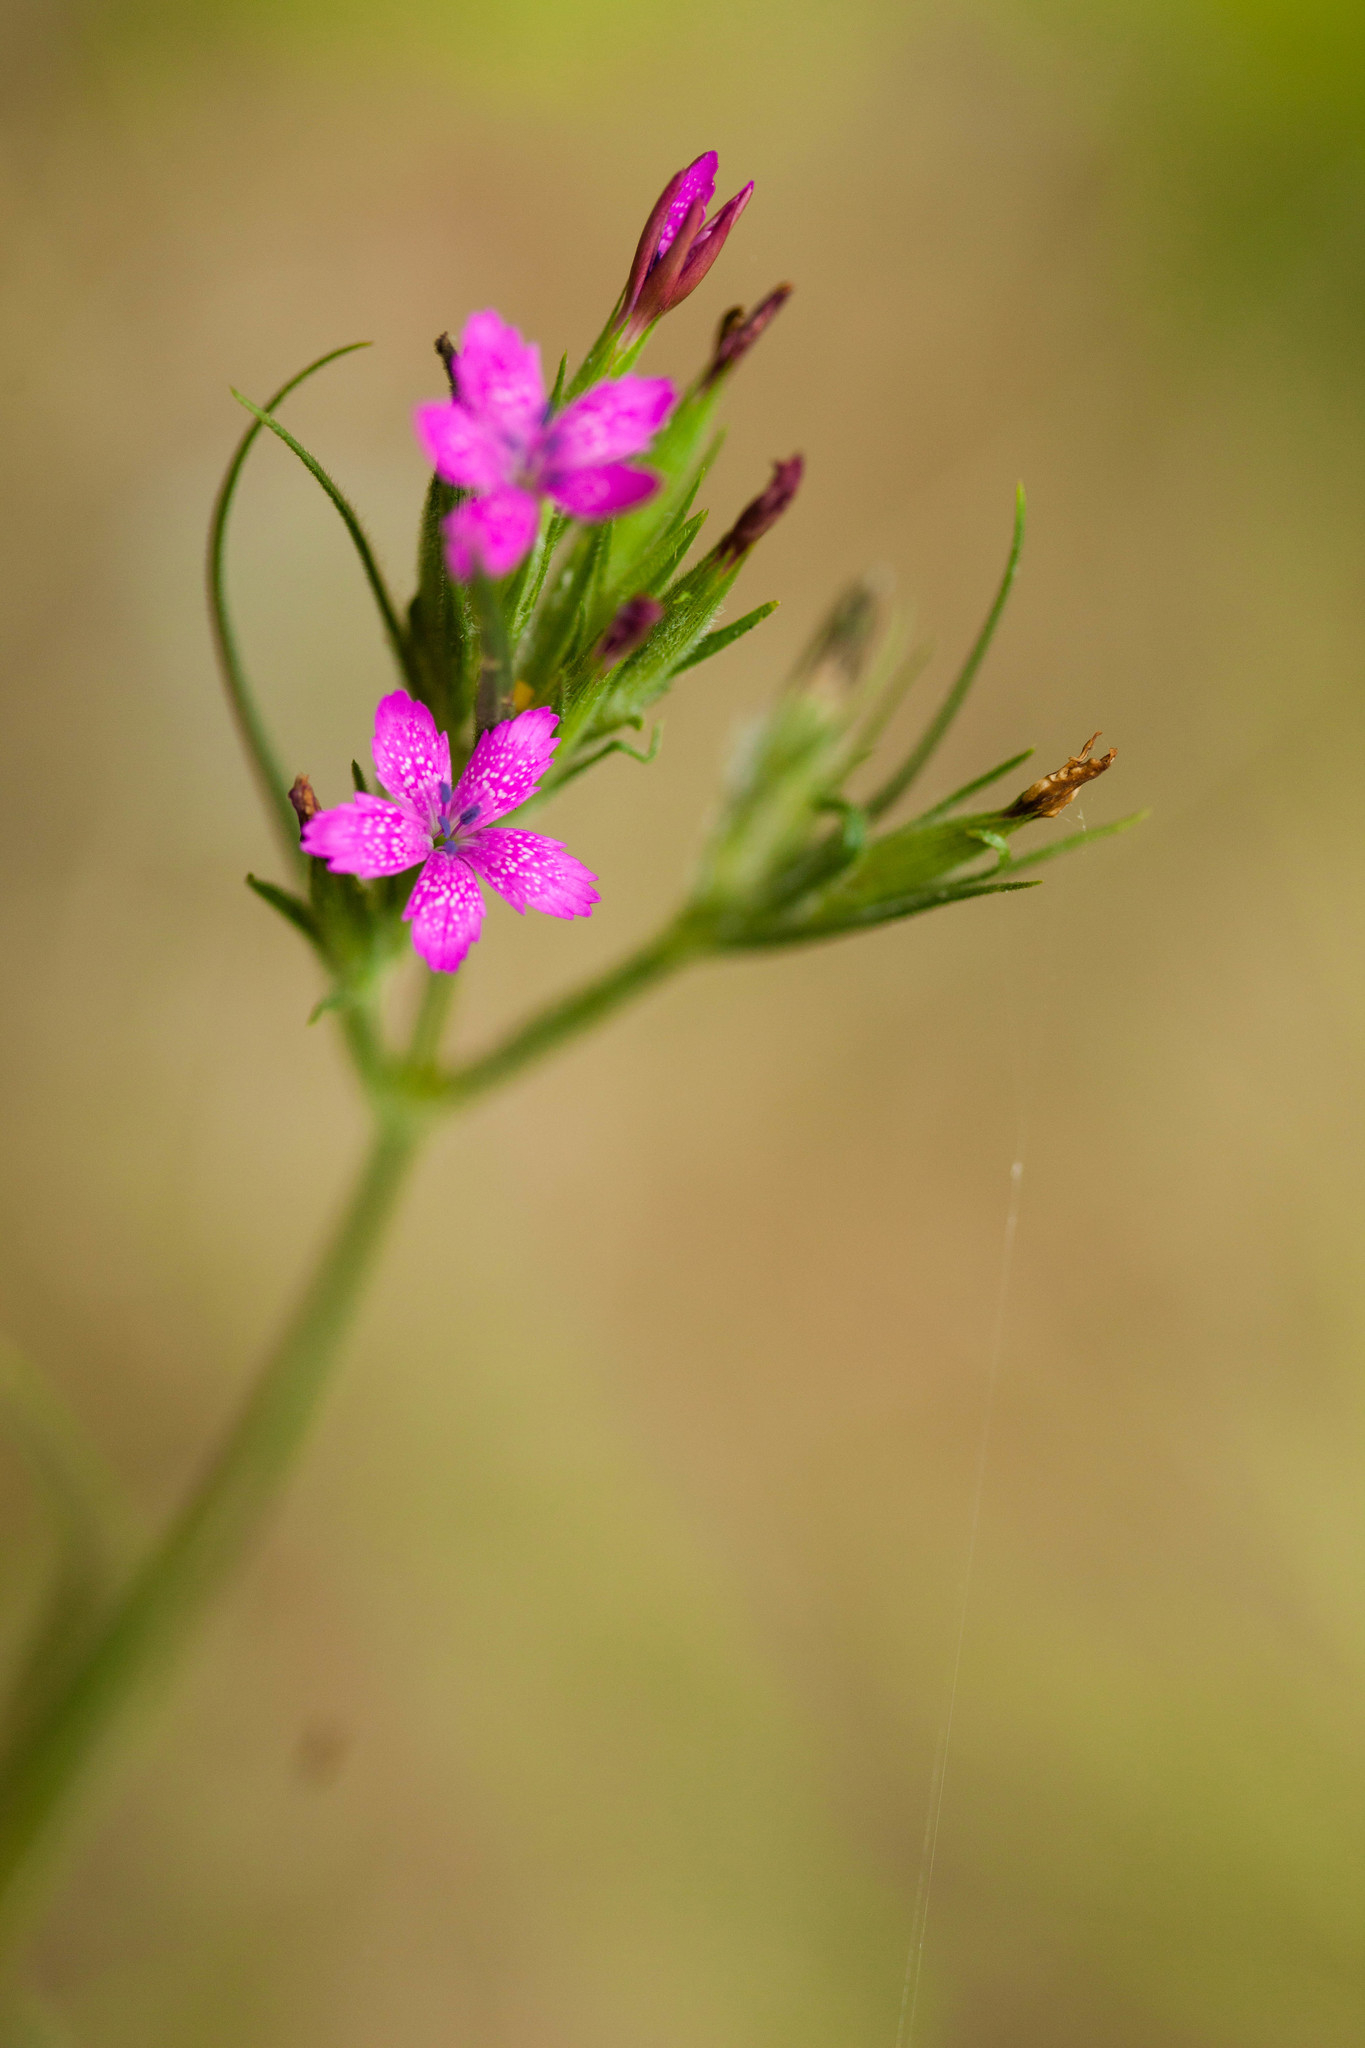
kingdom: Plantae
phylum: Tracheophyta
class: Magnoliopsida
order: Caryophyllales
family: Caryophyllaceae
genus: Dianthus
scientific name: Dianthus armeria
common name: Deptford pink
